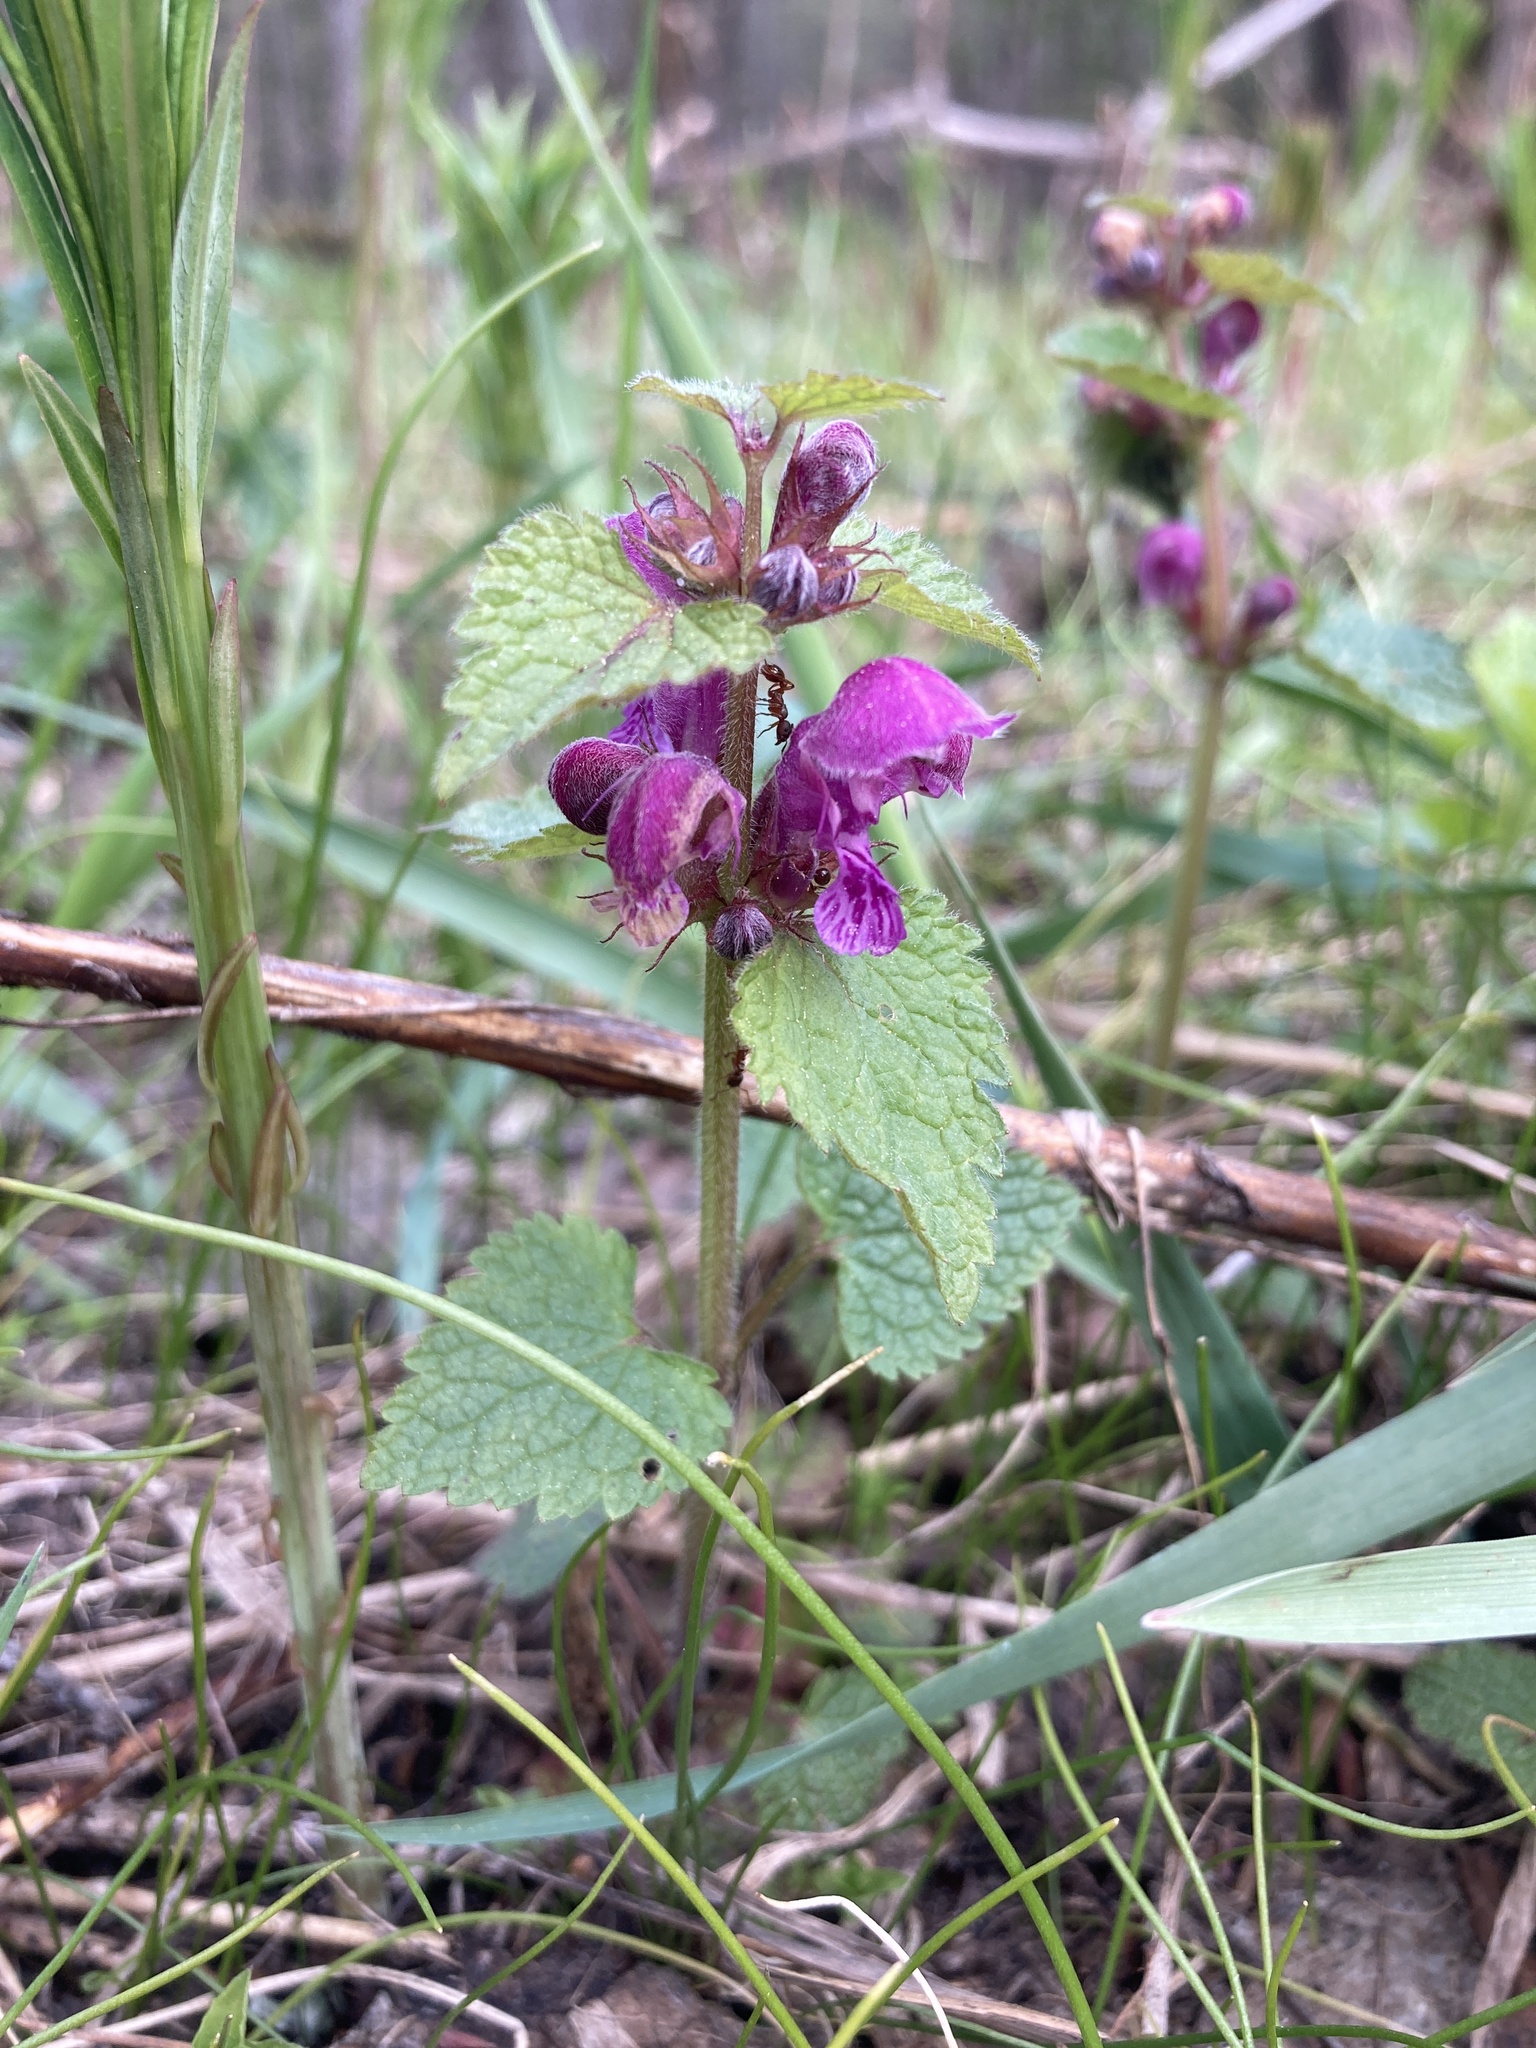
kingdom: Plantae
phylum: Tracheophyta
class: Magnoliopsida
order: Lamiales
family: Lamiaceae
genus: Lamium
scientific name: Lamium maculatum
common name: Spotted dead-nettle
